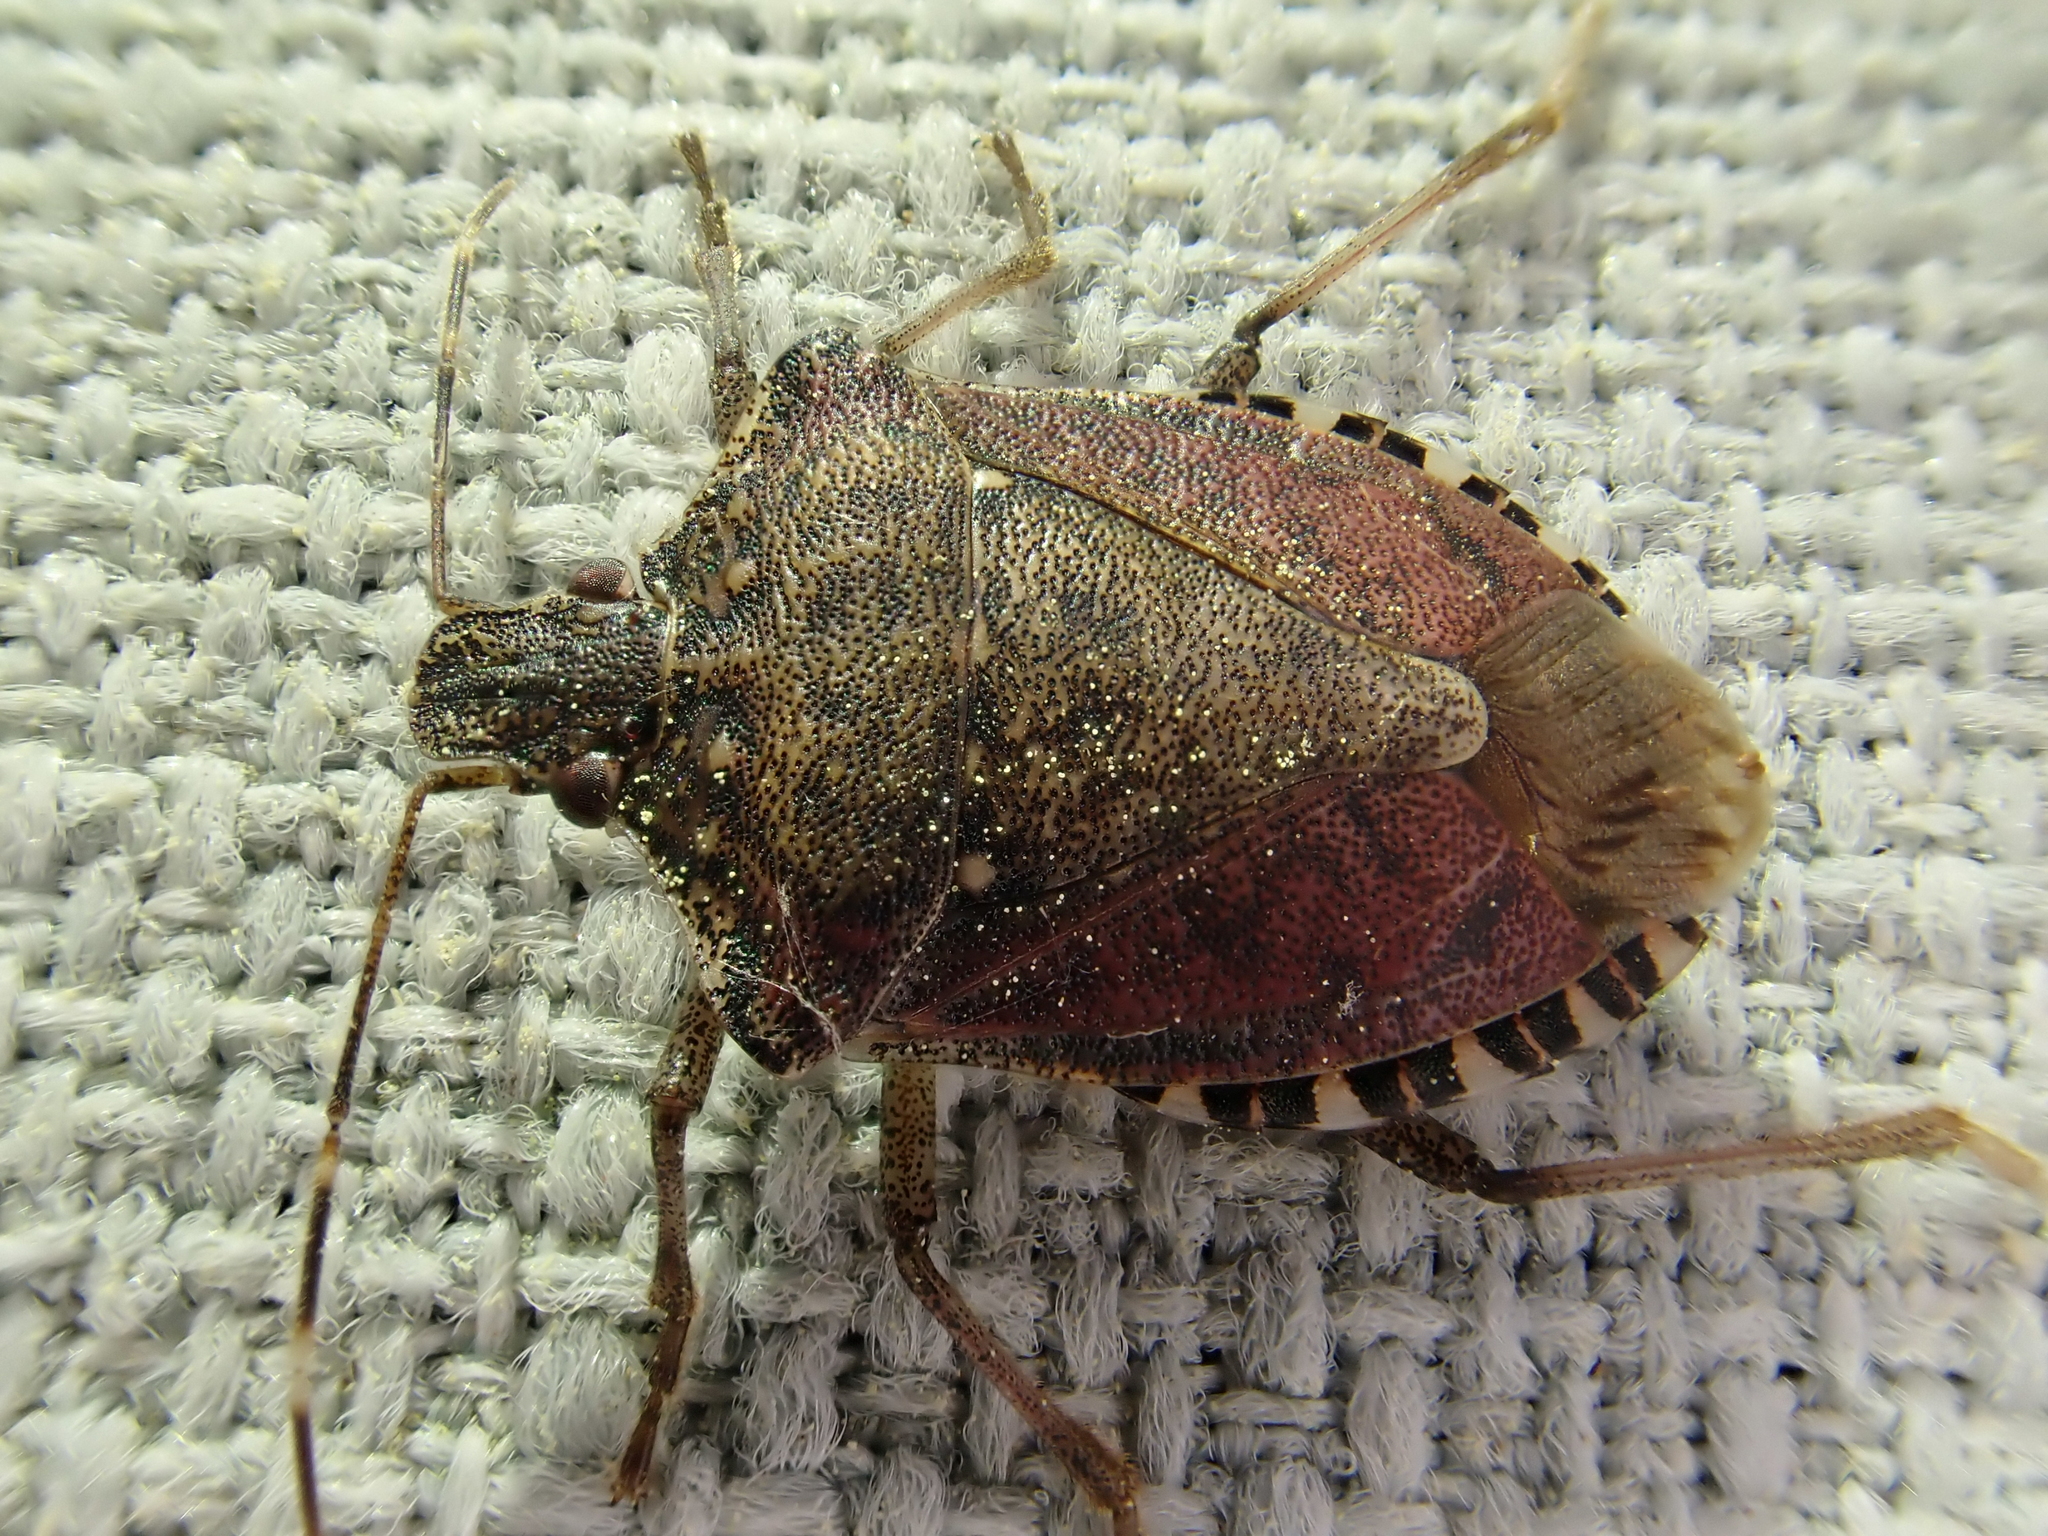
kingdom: Animalia
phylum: Arthropoda
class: Insecta
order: Hemiptera
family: Pentatomidae
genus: Halyomorpha
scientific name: Halyomorpha halys
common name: Brown marmorated stink bug
